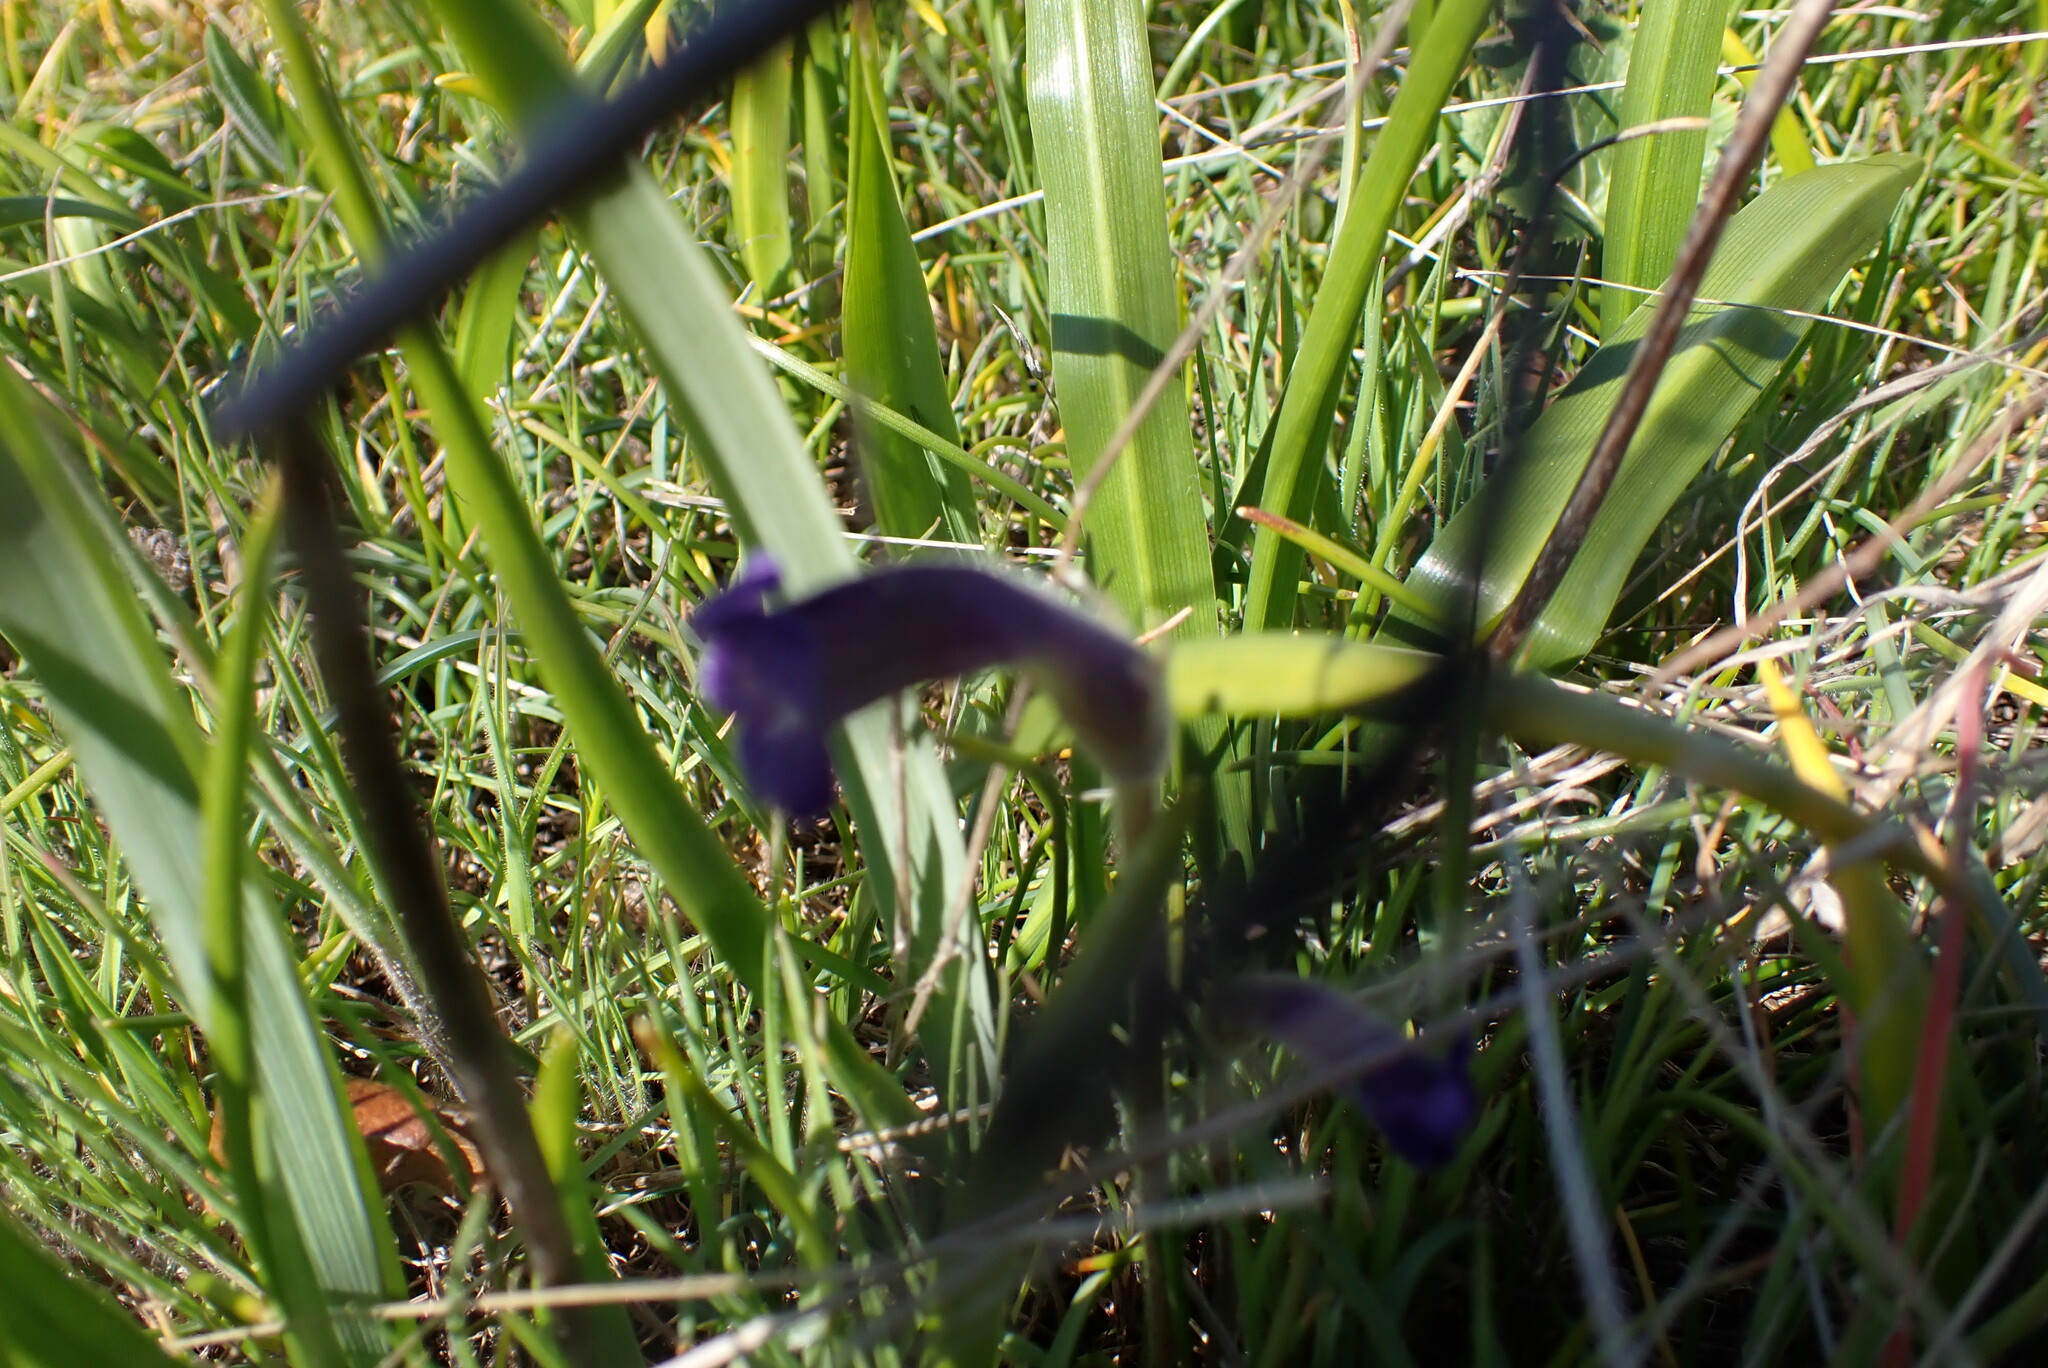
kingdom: Plantae
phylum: Tracheophyta
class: Magnoliopsida
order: Lamiales
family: Orobanchaceae
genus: Aphyllon
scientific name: Aphyllon uniflorum
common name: One-flowered broomrape
